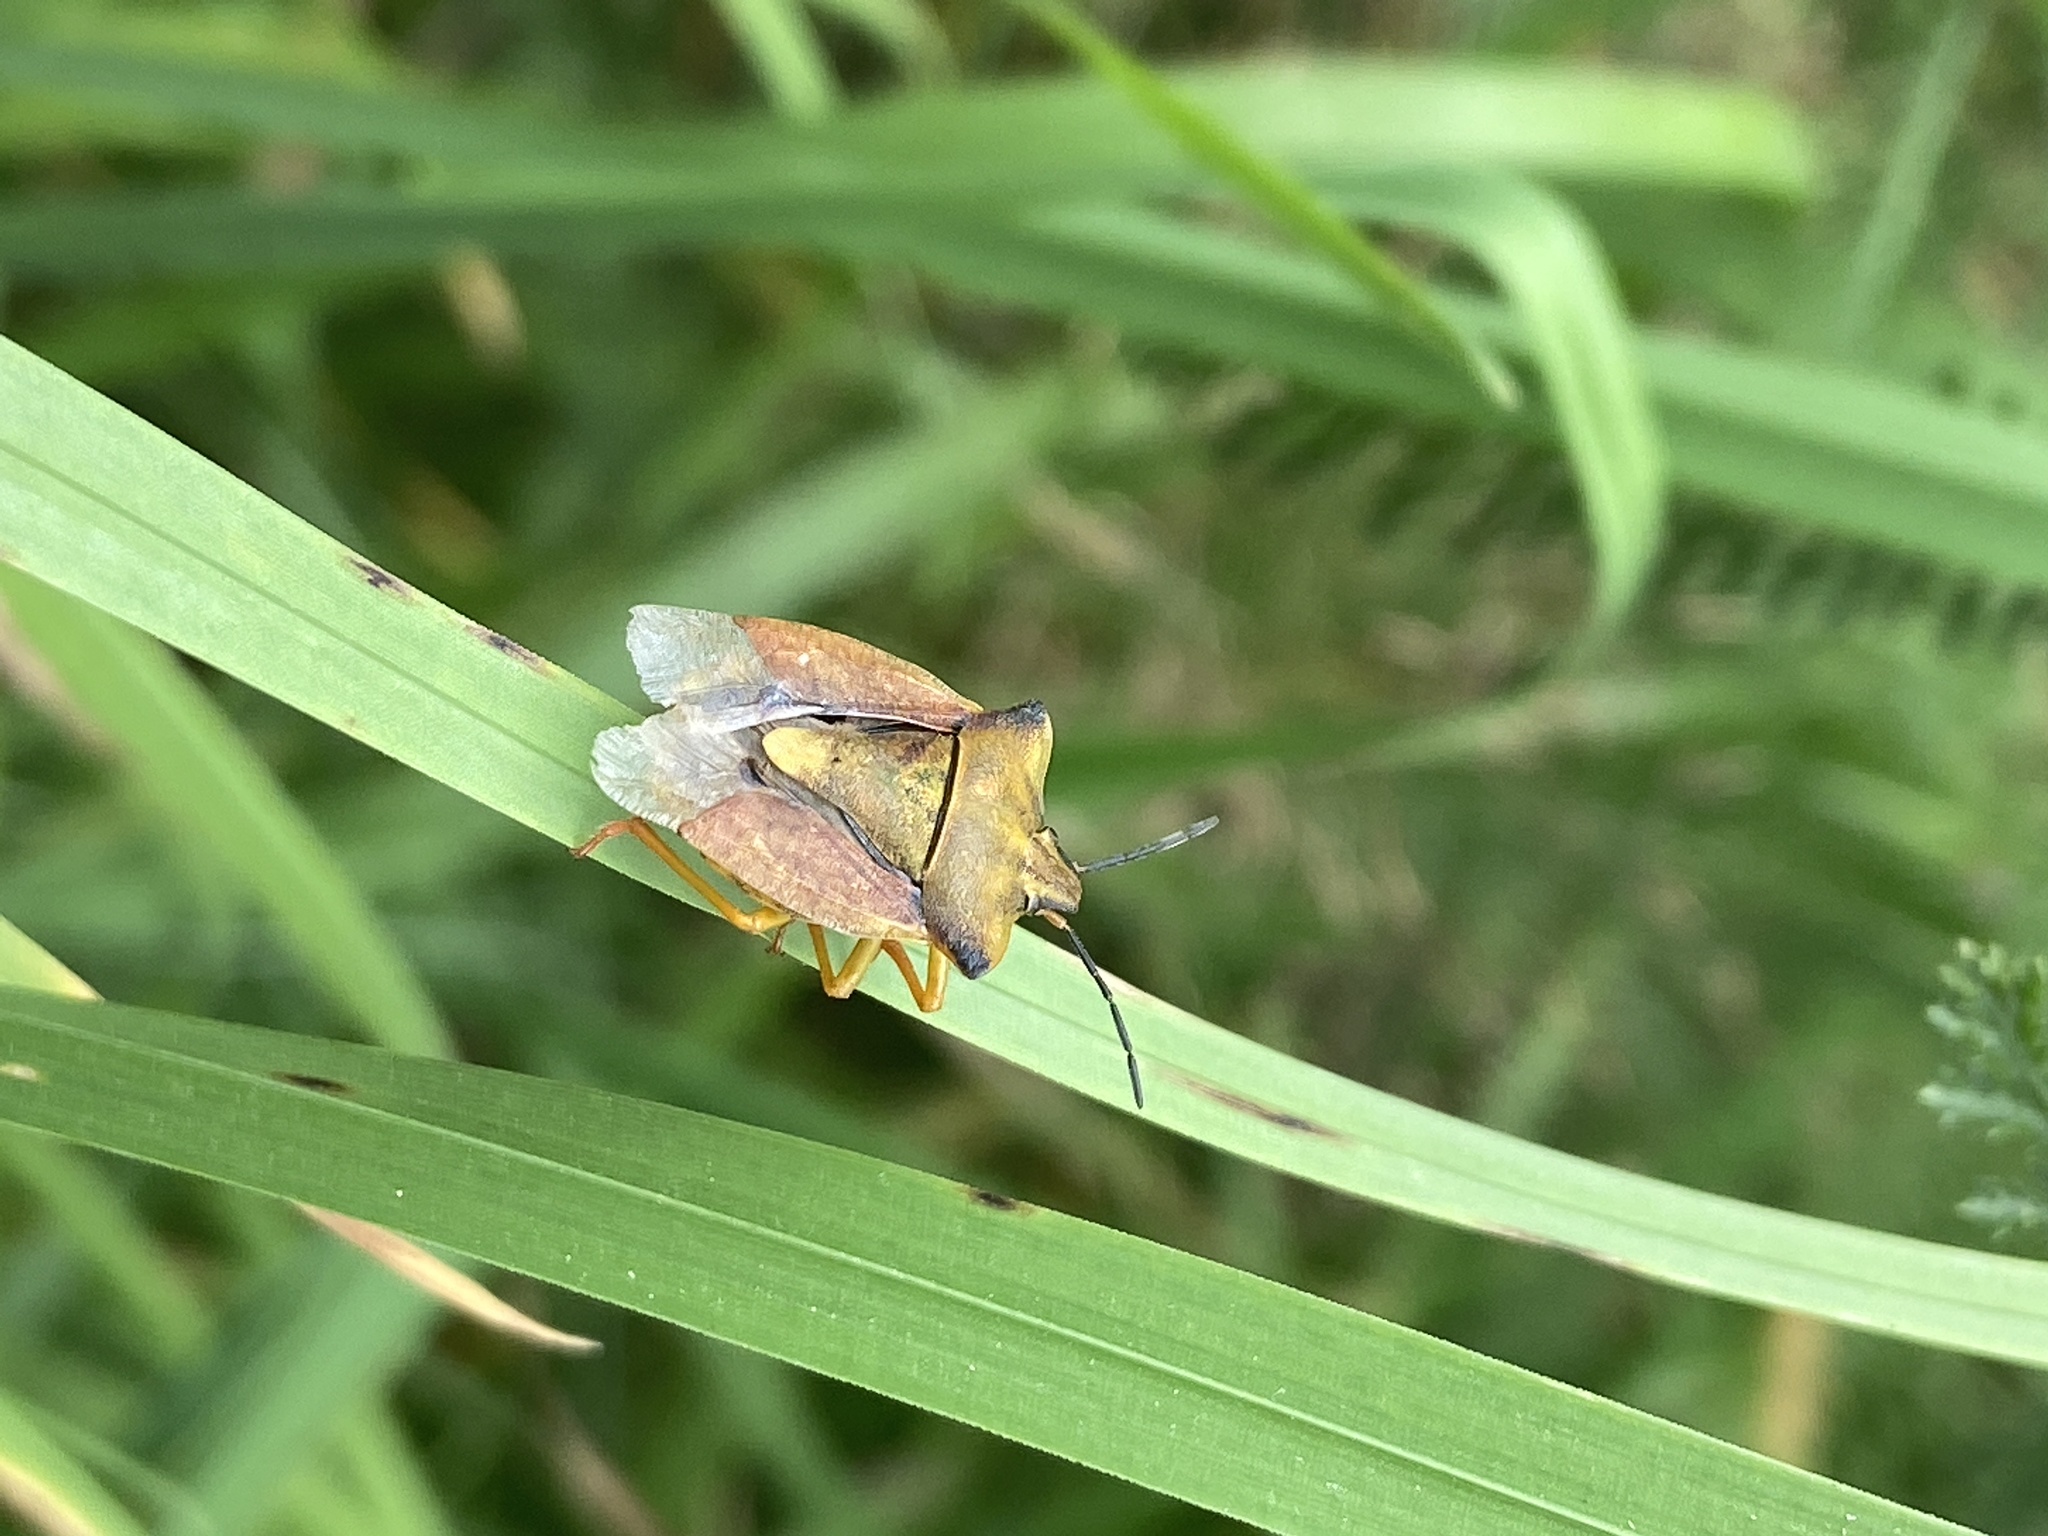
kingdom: Animalia
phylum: Arthropoda
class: Insecta
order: Hemiptera
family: Pentatomidae
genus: Carpocoris
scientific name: Carpocoris fuscispinus
